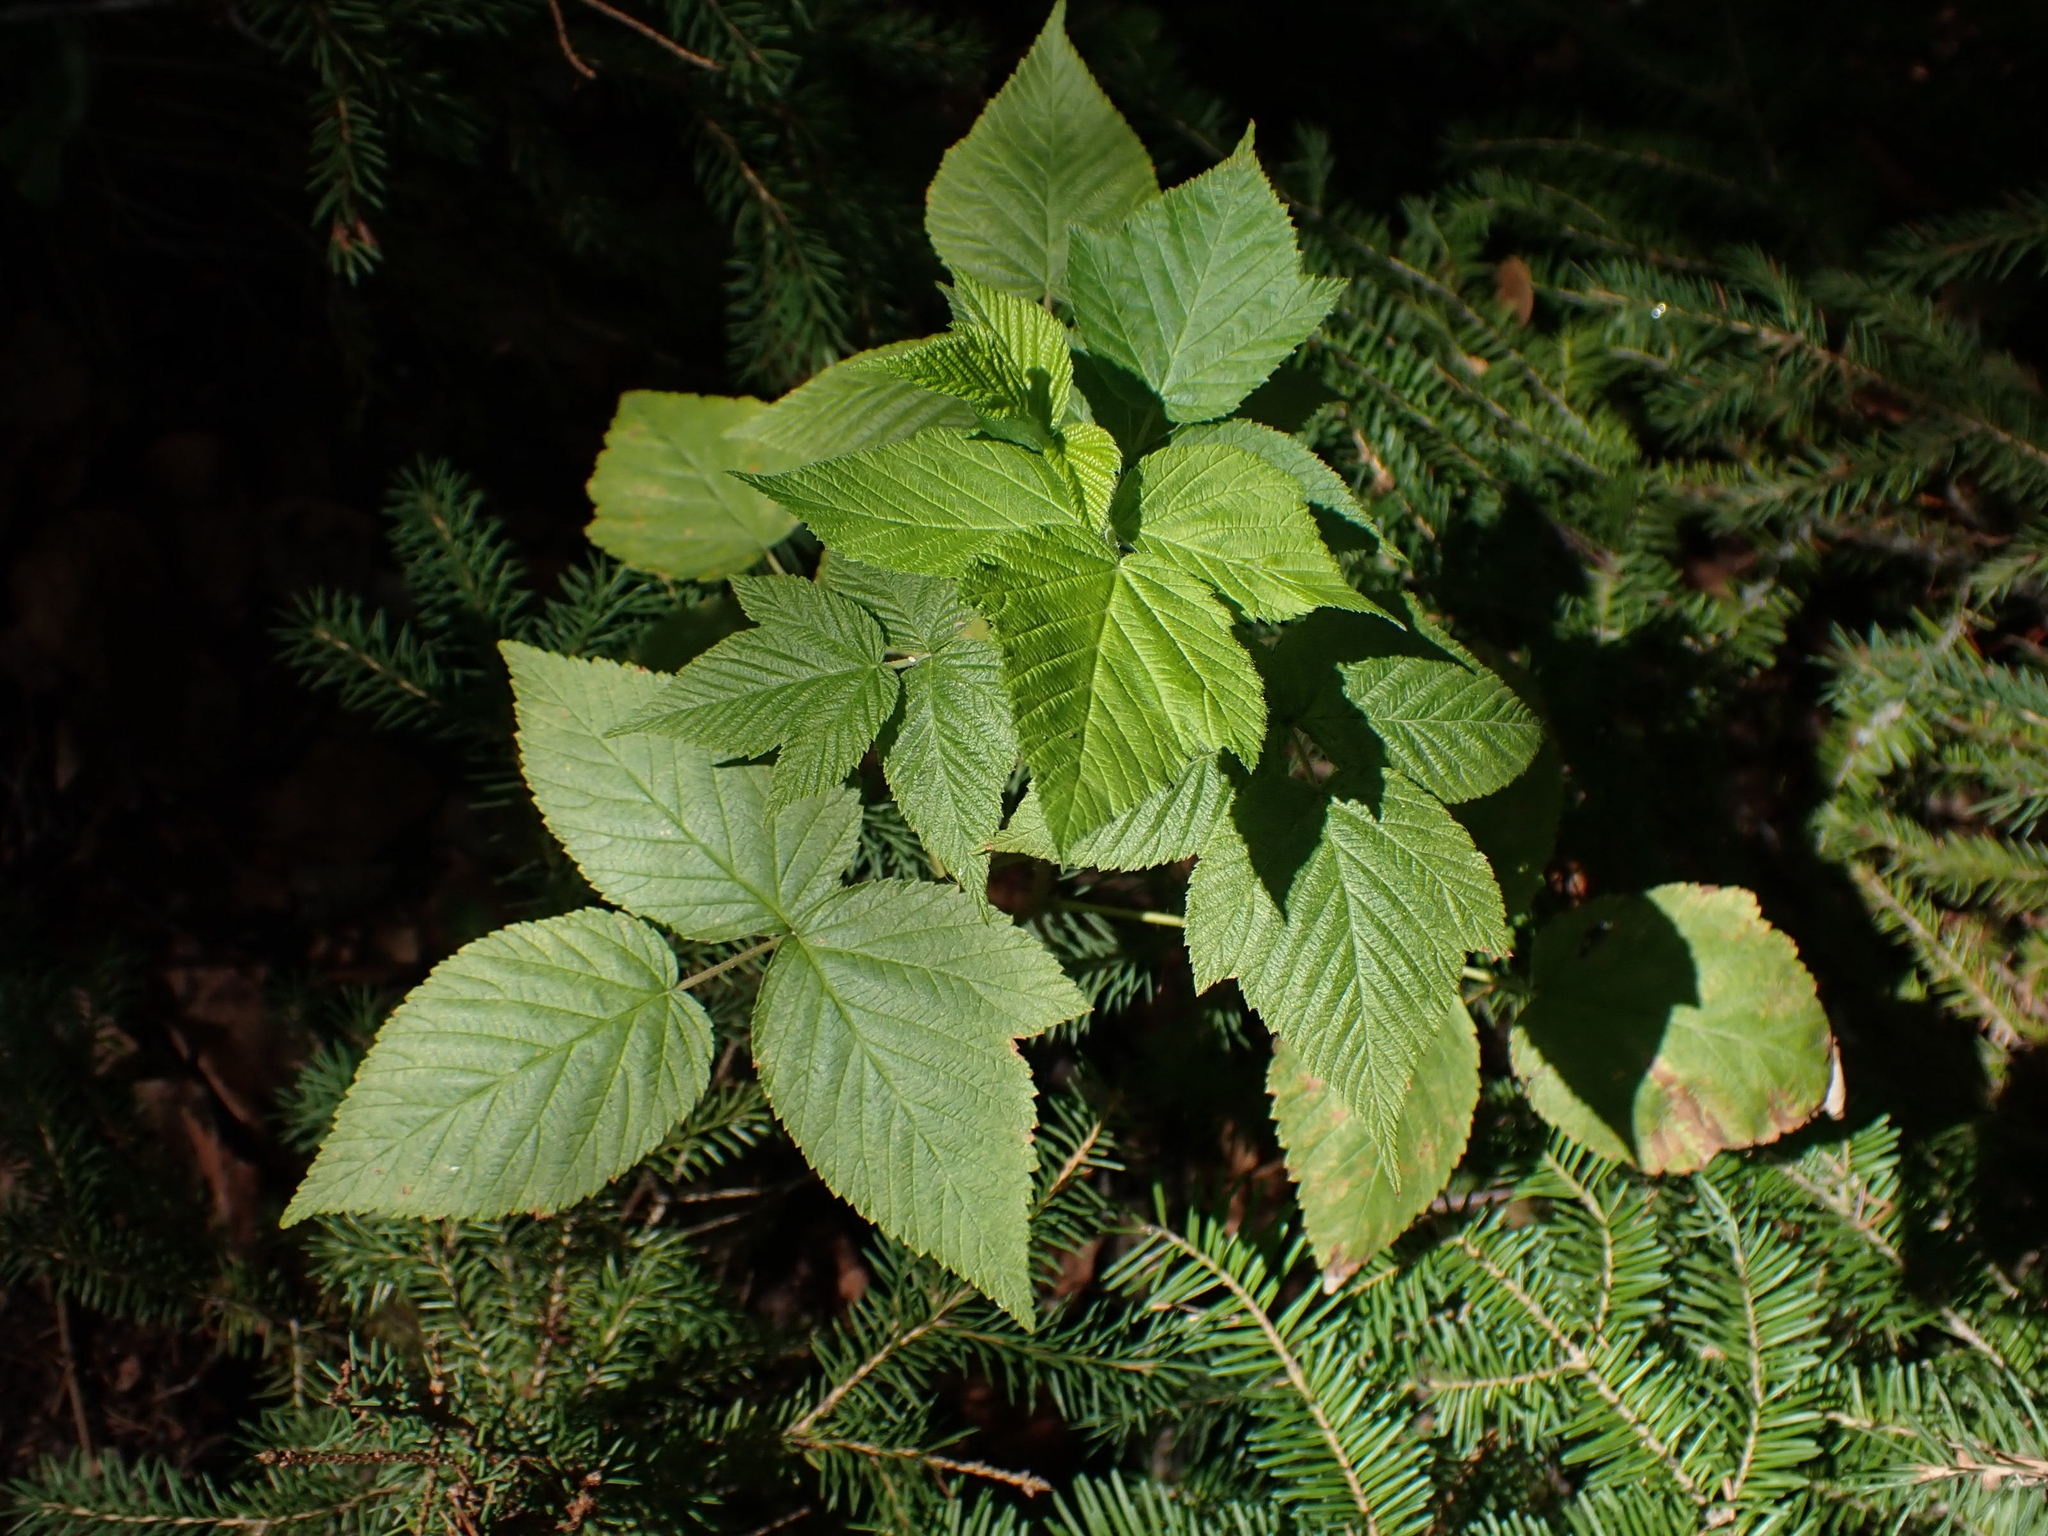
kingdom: Plantae
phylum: Tracheophyta
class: Magnoliopsida
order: Rosales
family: Rosaceae
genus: Rubus
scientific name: Rubus idaeus
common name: Raspberry
